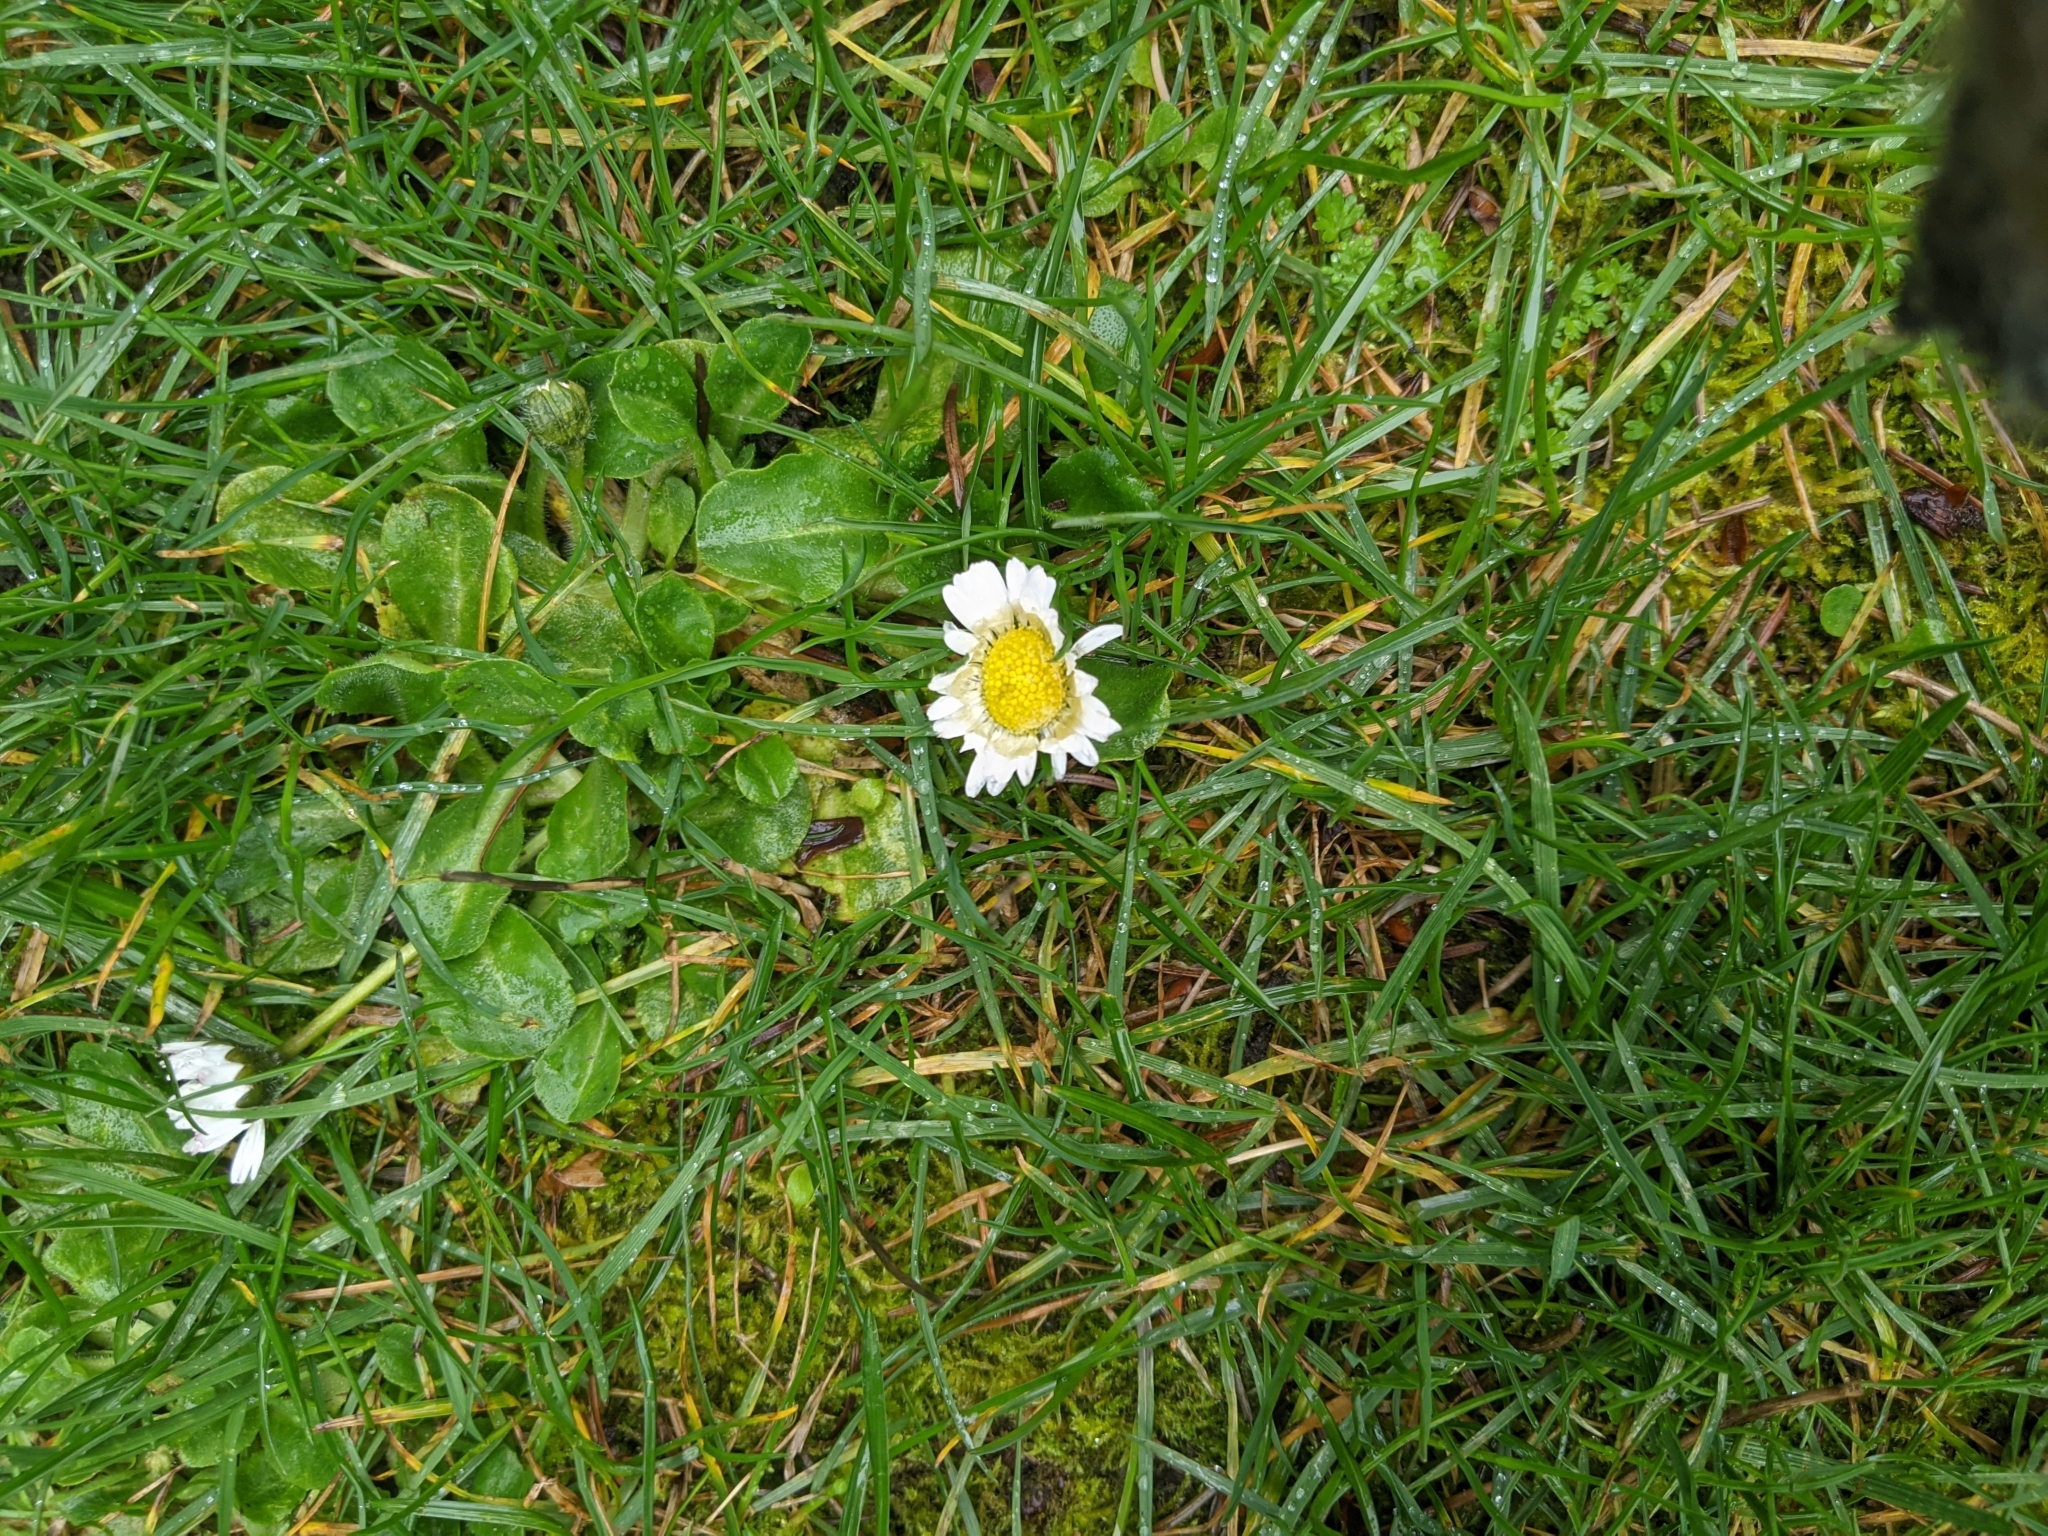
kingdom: Plantae
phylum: Tracheophyta
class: Magnoliopsida
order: Asterales
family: Asteraceae
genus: Bellis
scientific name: Bellis perennis
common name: Lawndaisy
